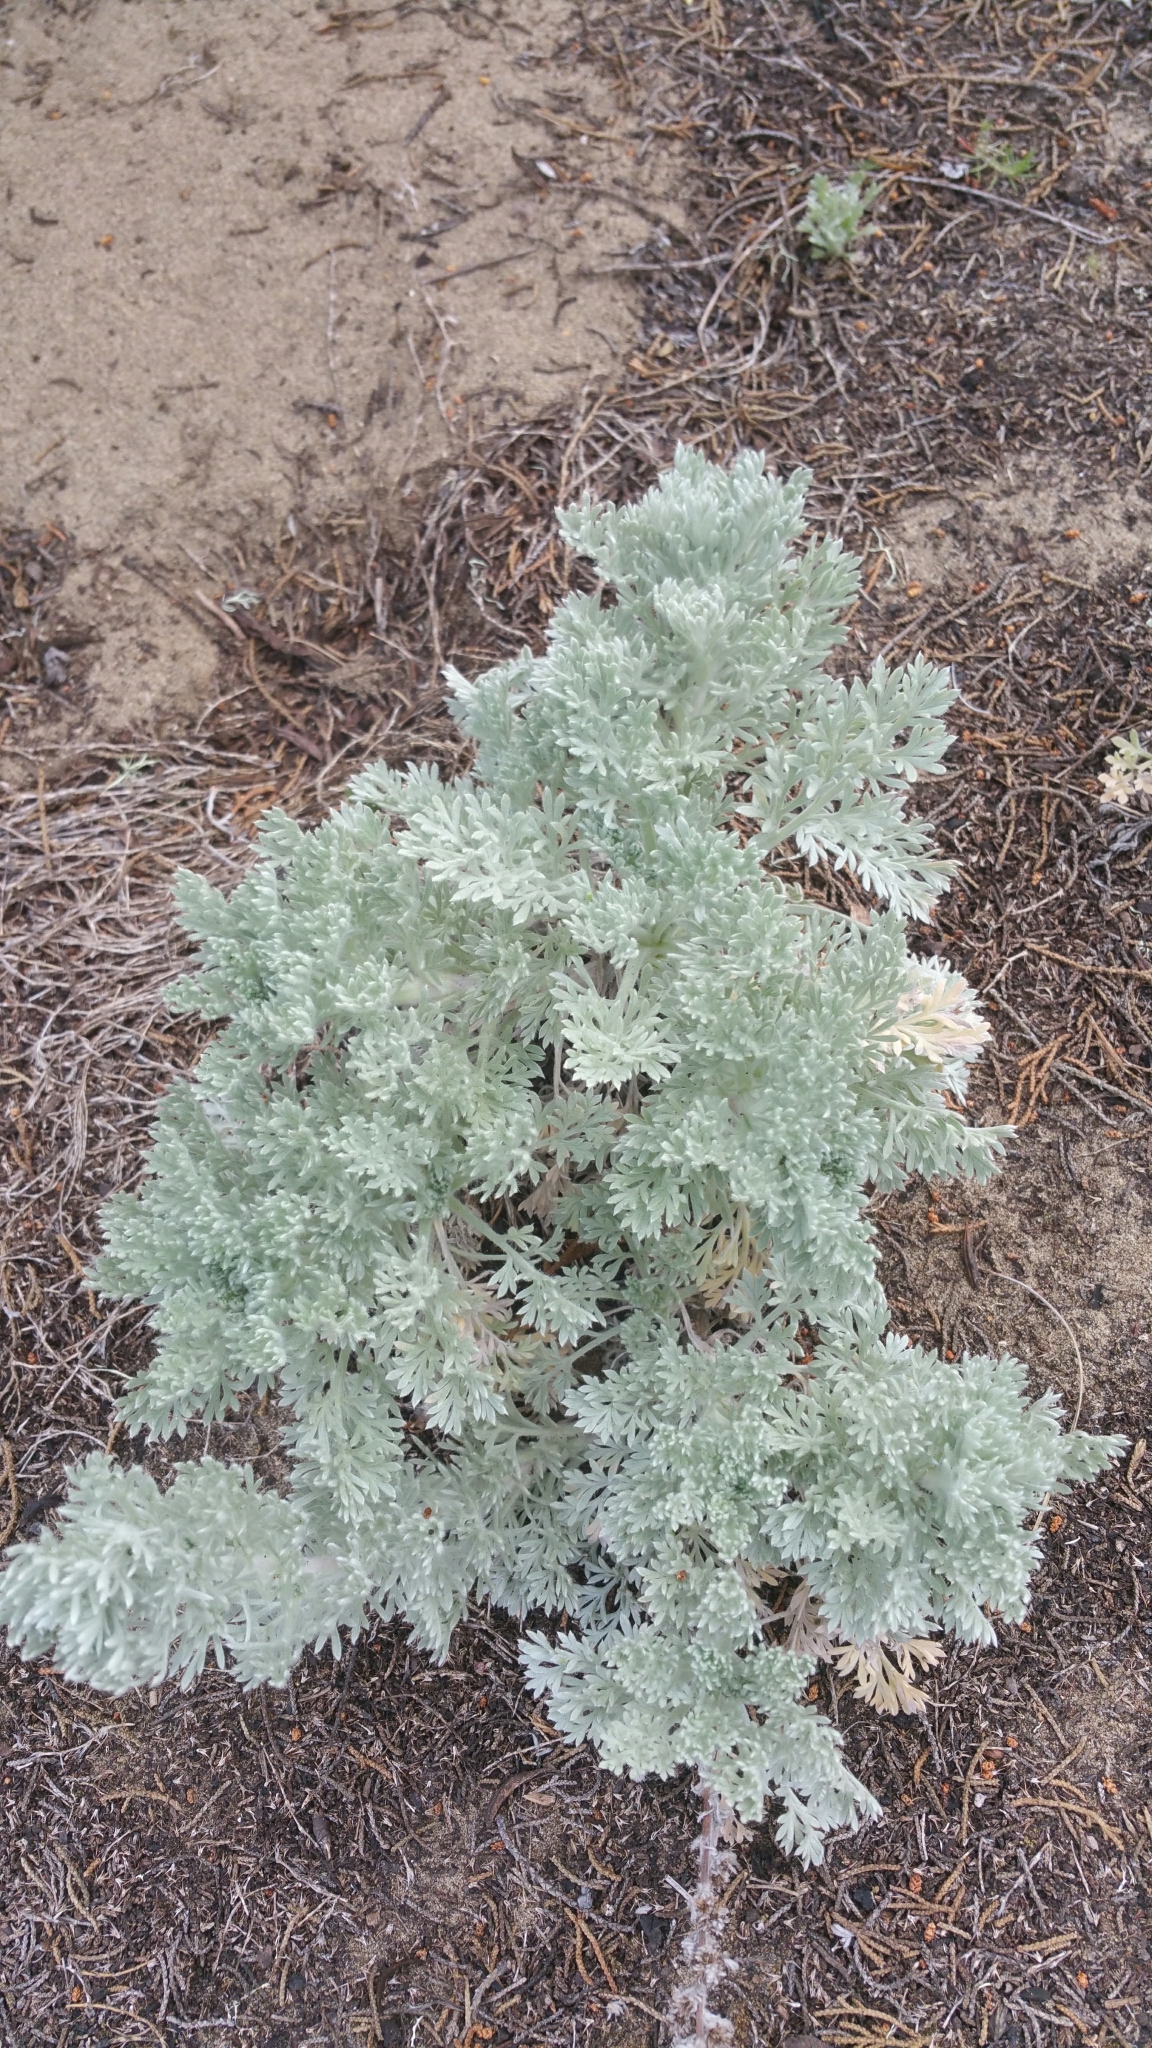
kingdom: Plantae
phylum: Tracheophyta
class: Magnoliopsida
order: Asterales
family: Asteraceae
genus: Artemisia
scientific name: Artemisia pycnocephala
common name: Coastal sagewort
